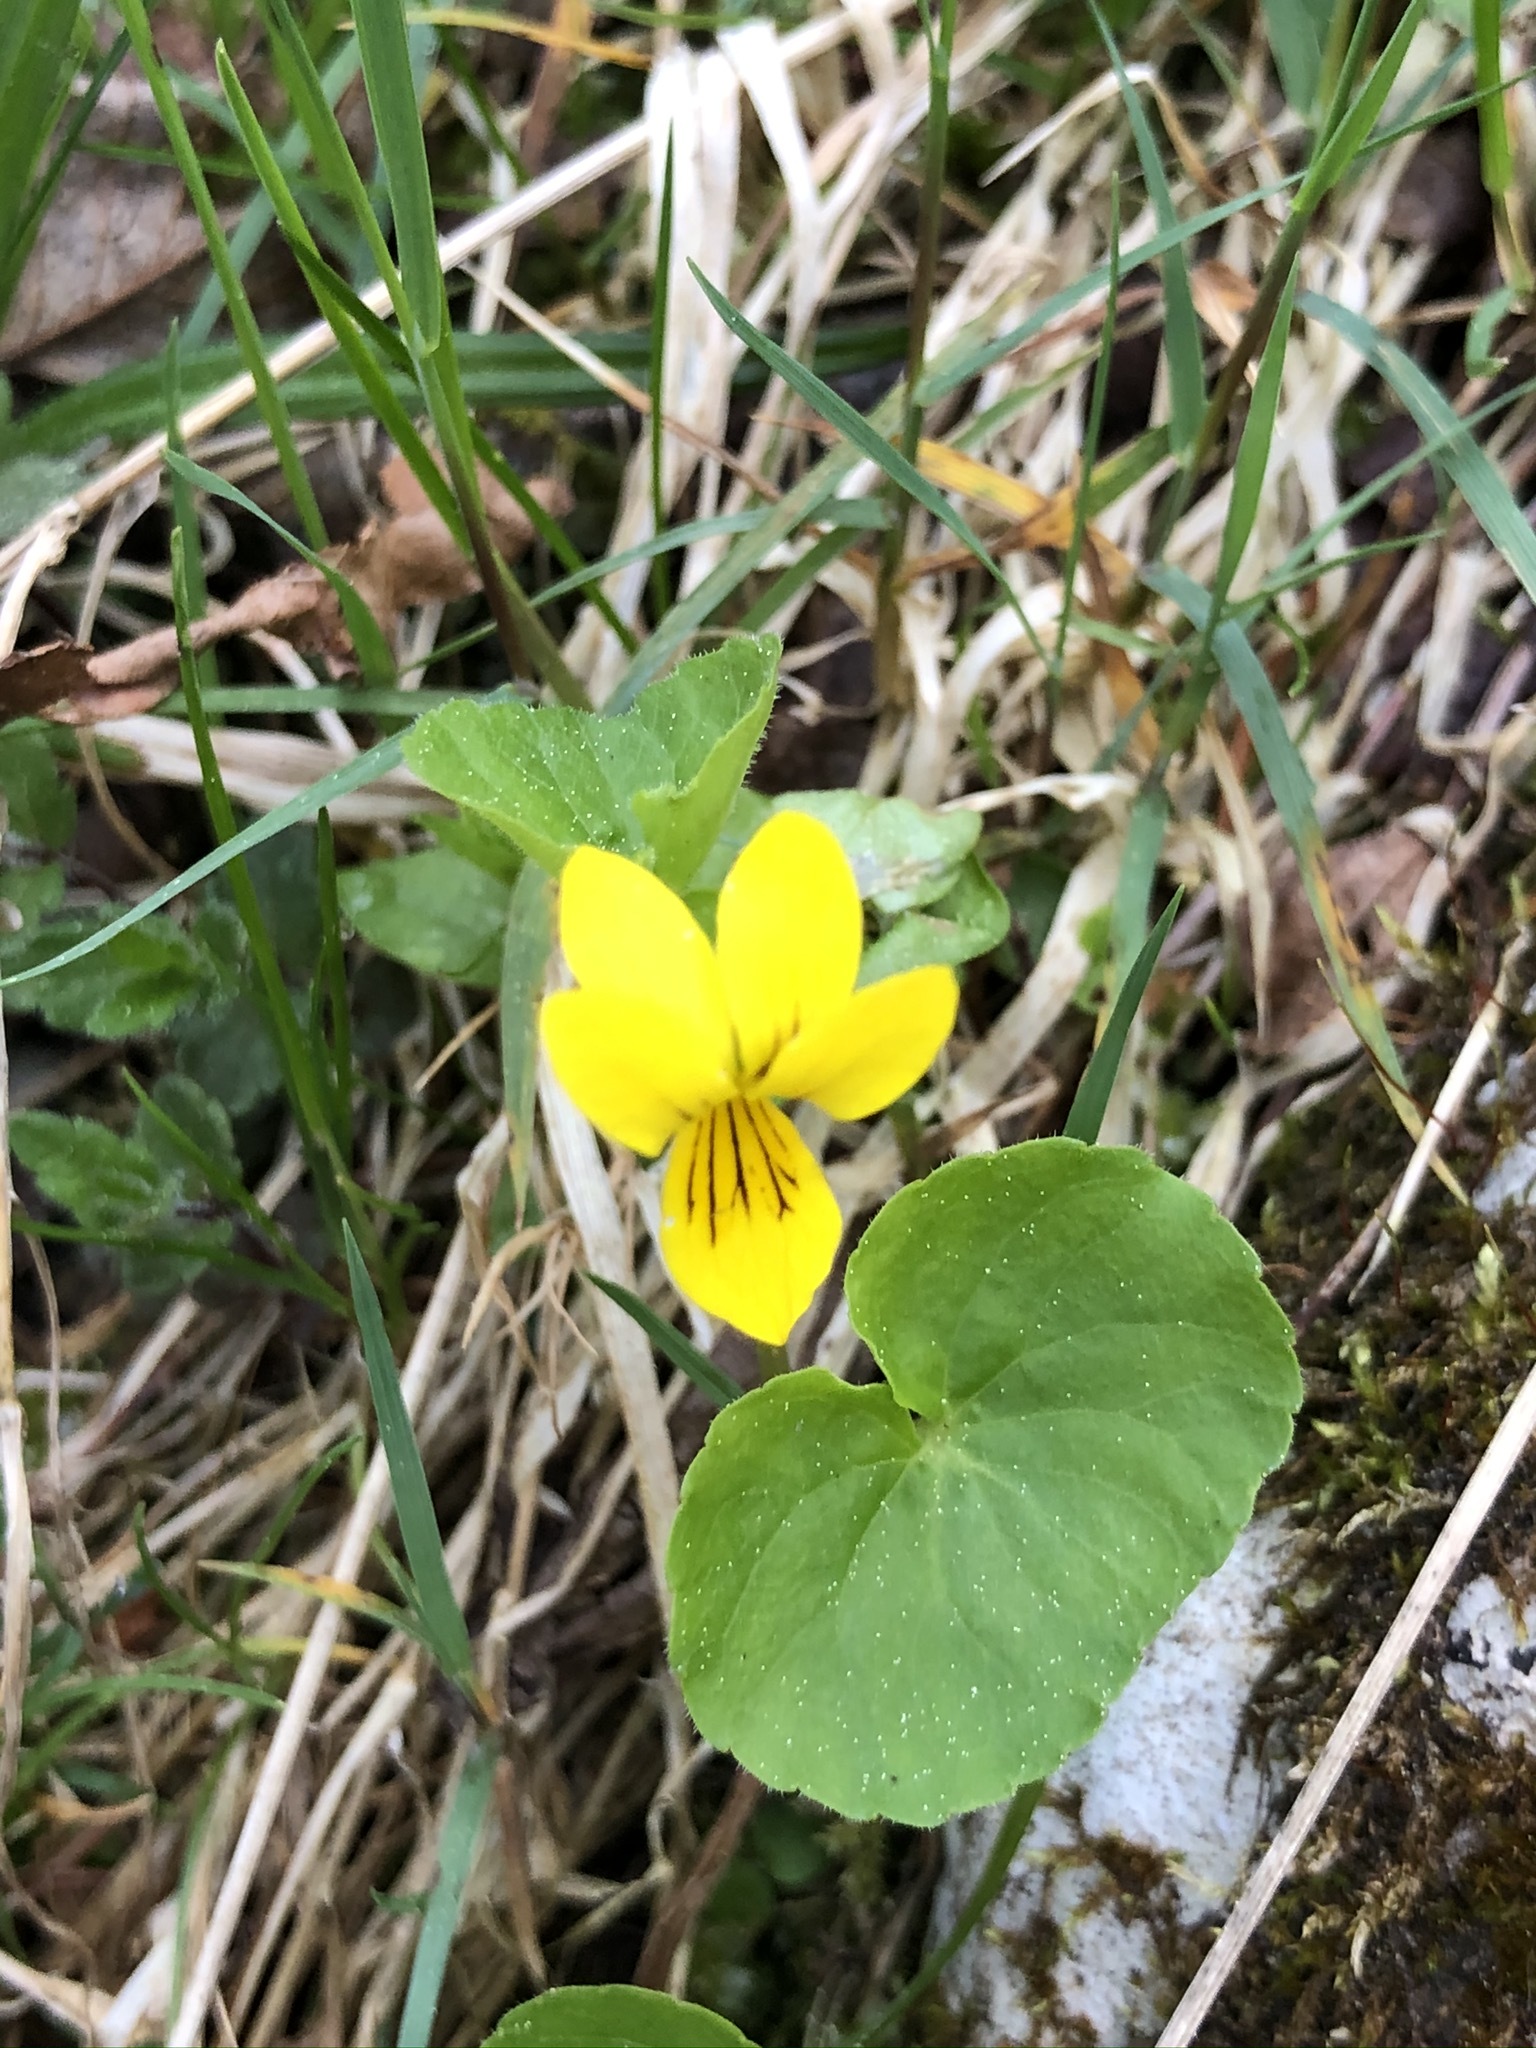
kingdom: Plantae
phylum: Tracheophyta
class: Magnoliopsida
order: Malpighiales
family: Violaceae
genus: Viola
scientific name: Viola biflora
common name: Alpine yellow violet
